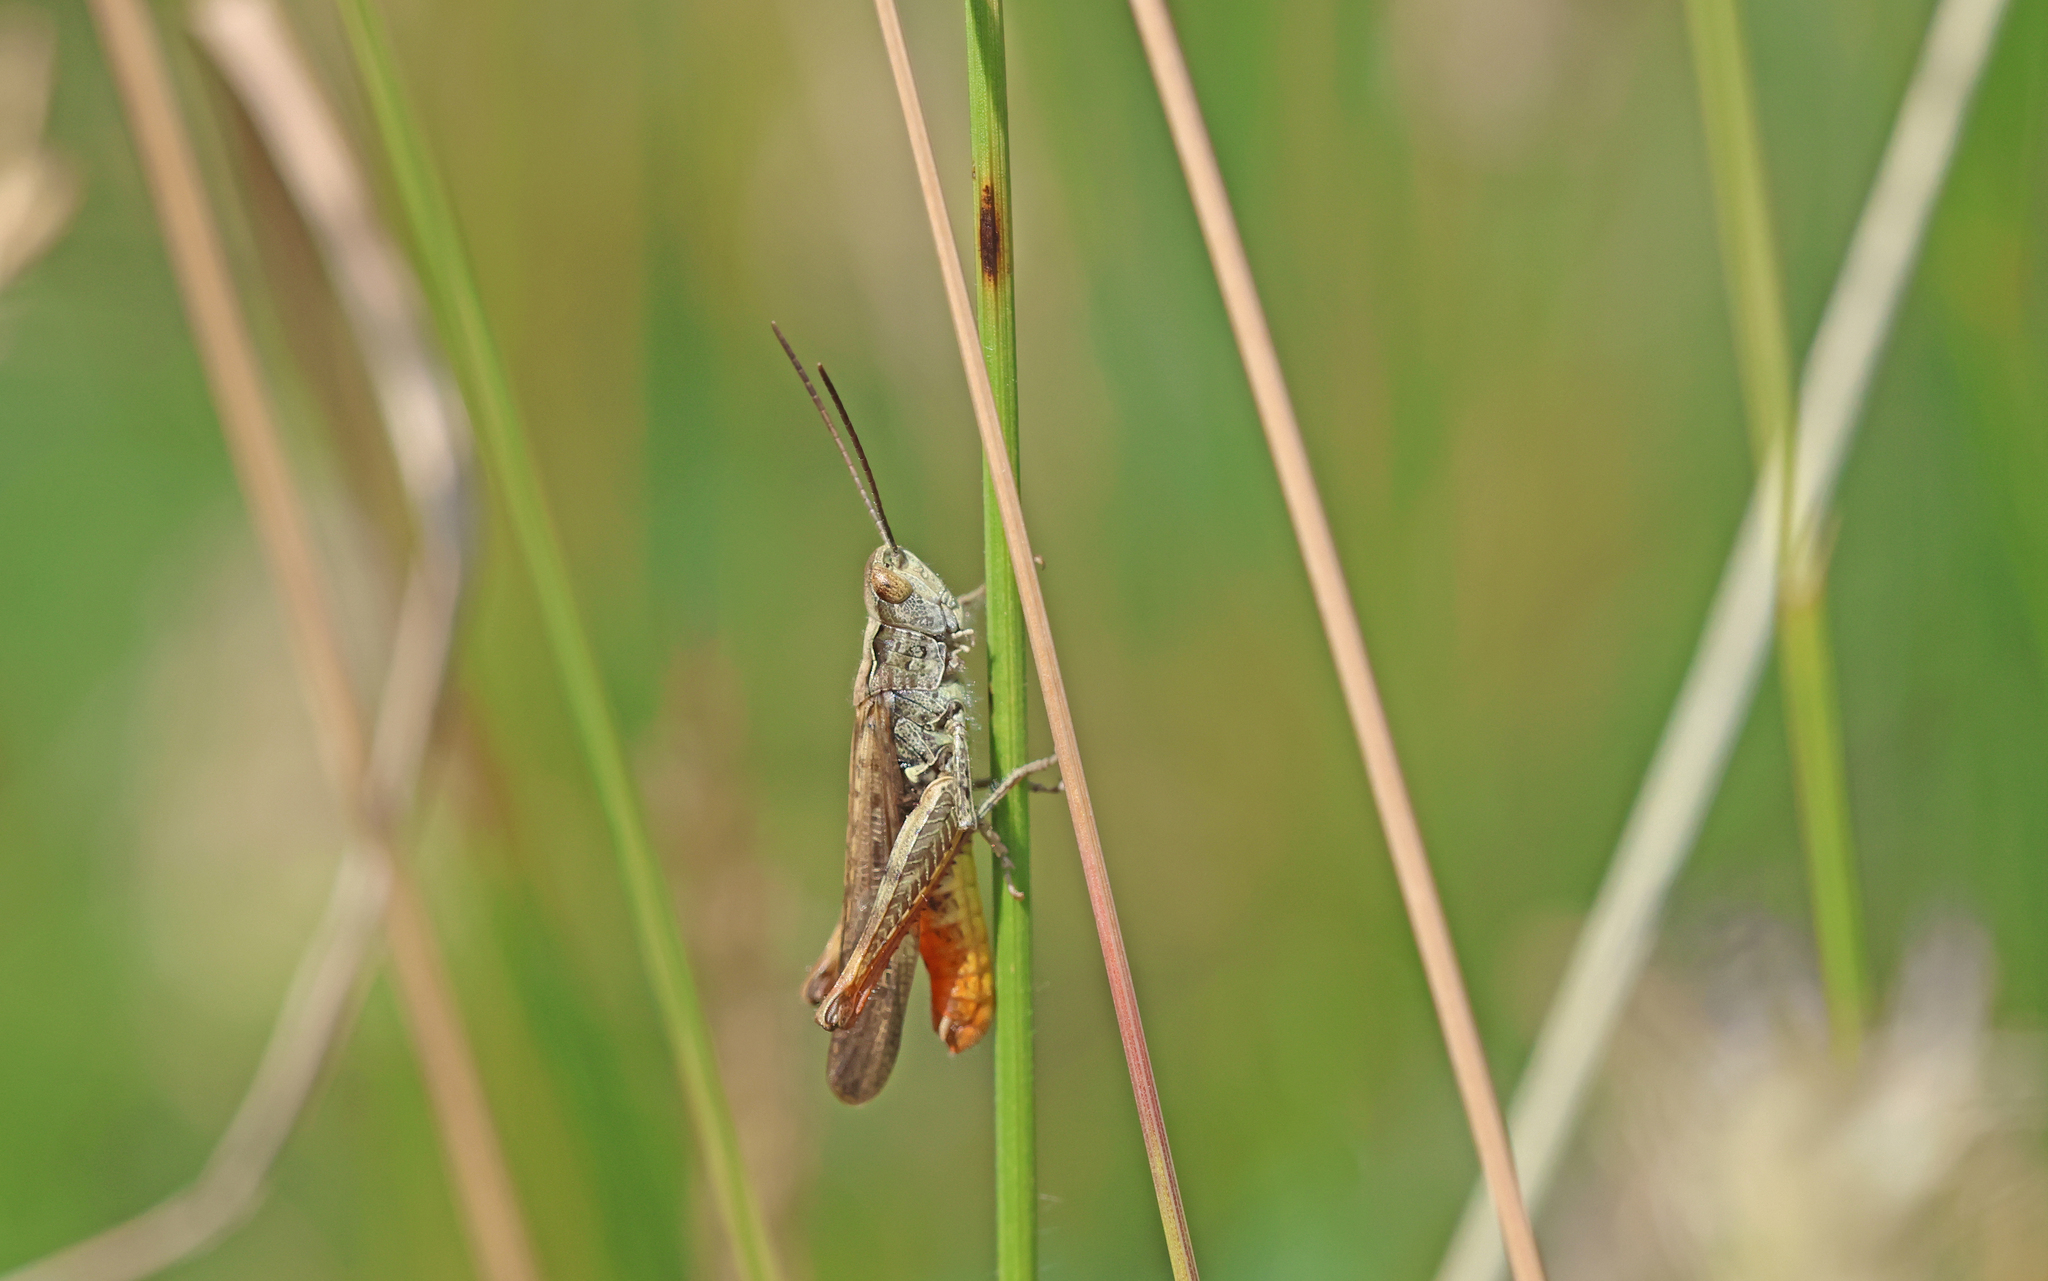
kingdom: Animalia
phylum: Arthropoda
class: Insecta
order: Orthoptera
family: Acrididae
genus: Chorthippus
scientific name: Chorthippus brunneus
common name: Field grasshopper
